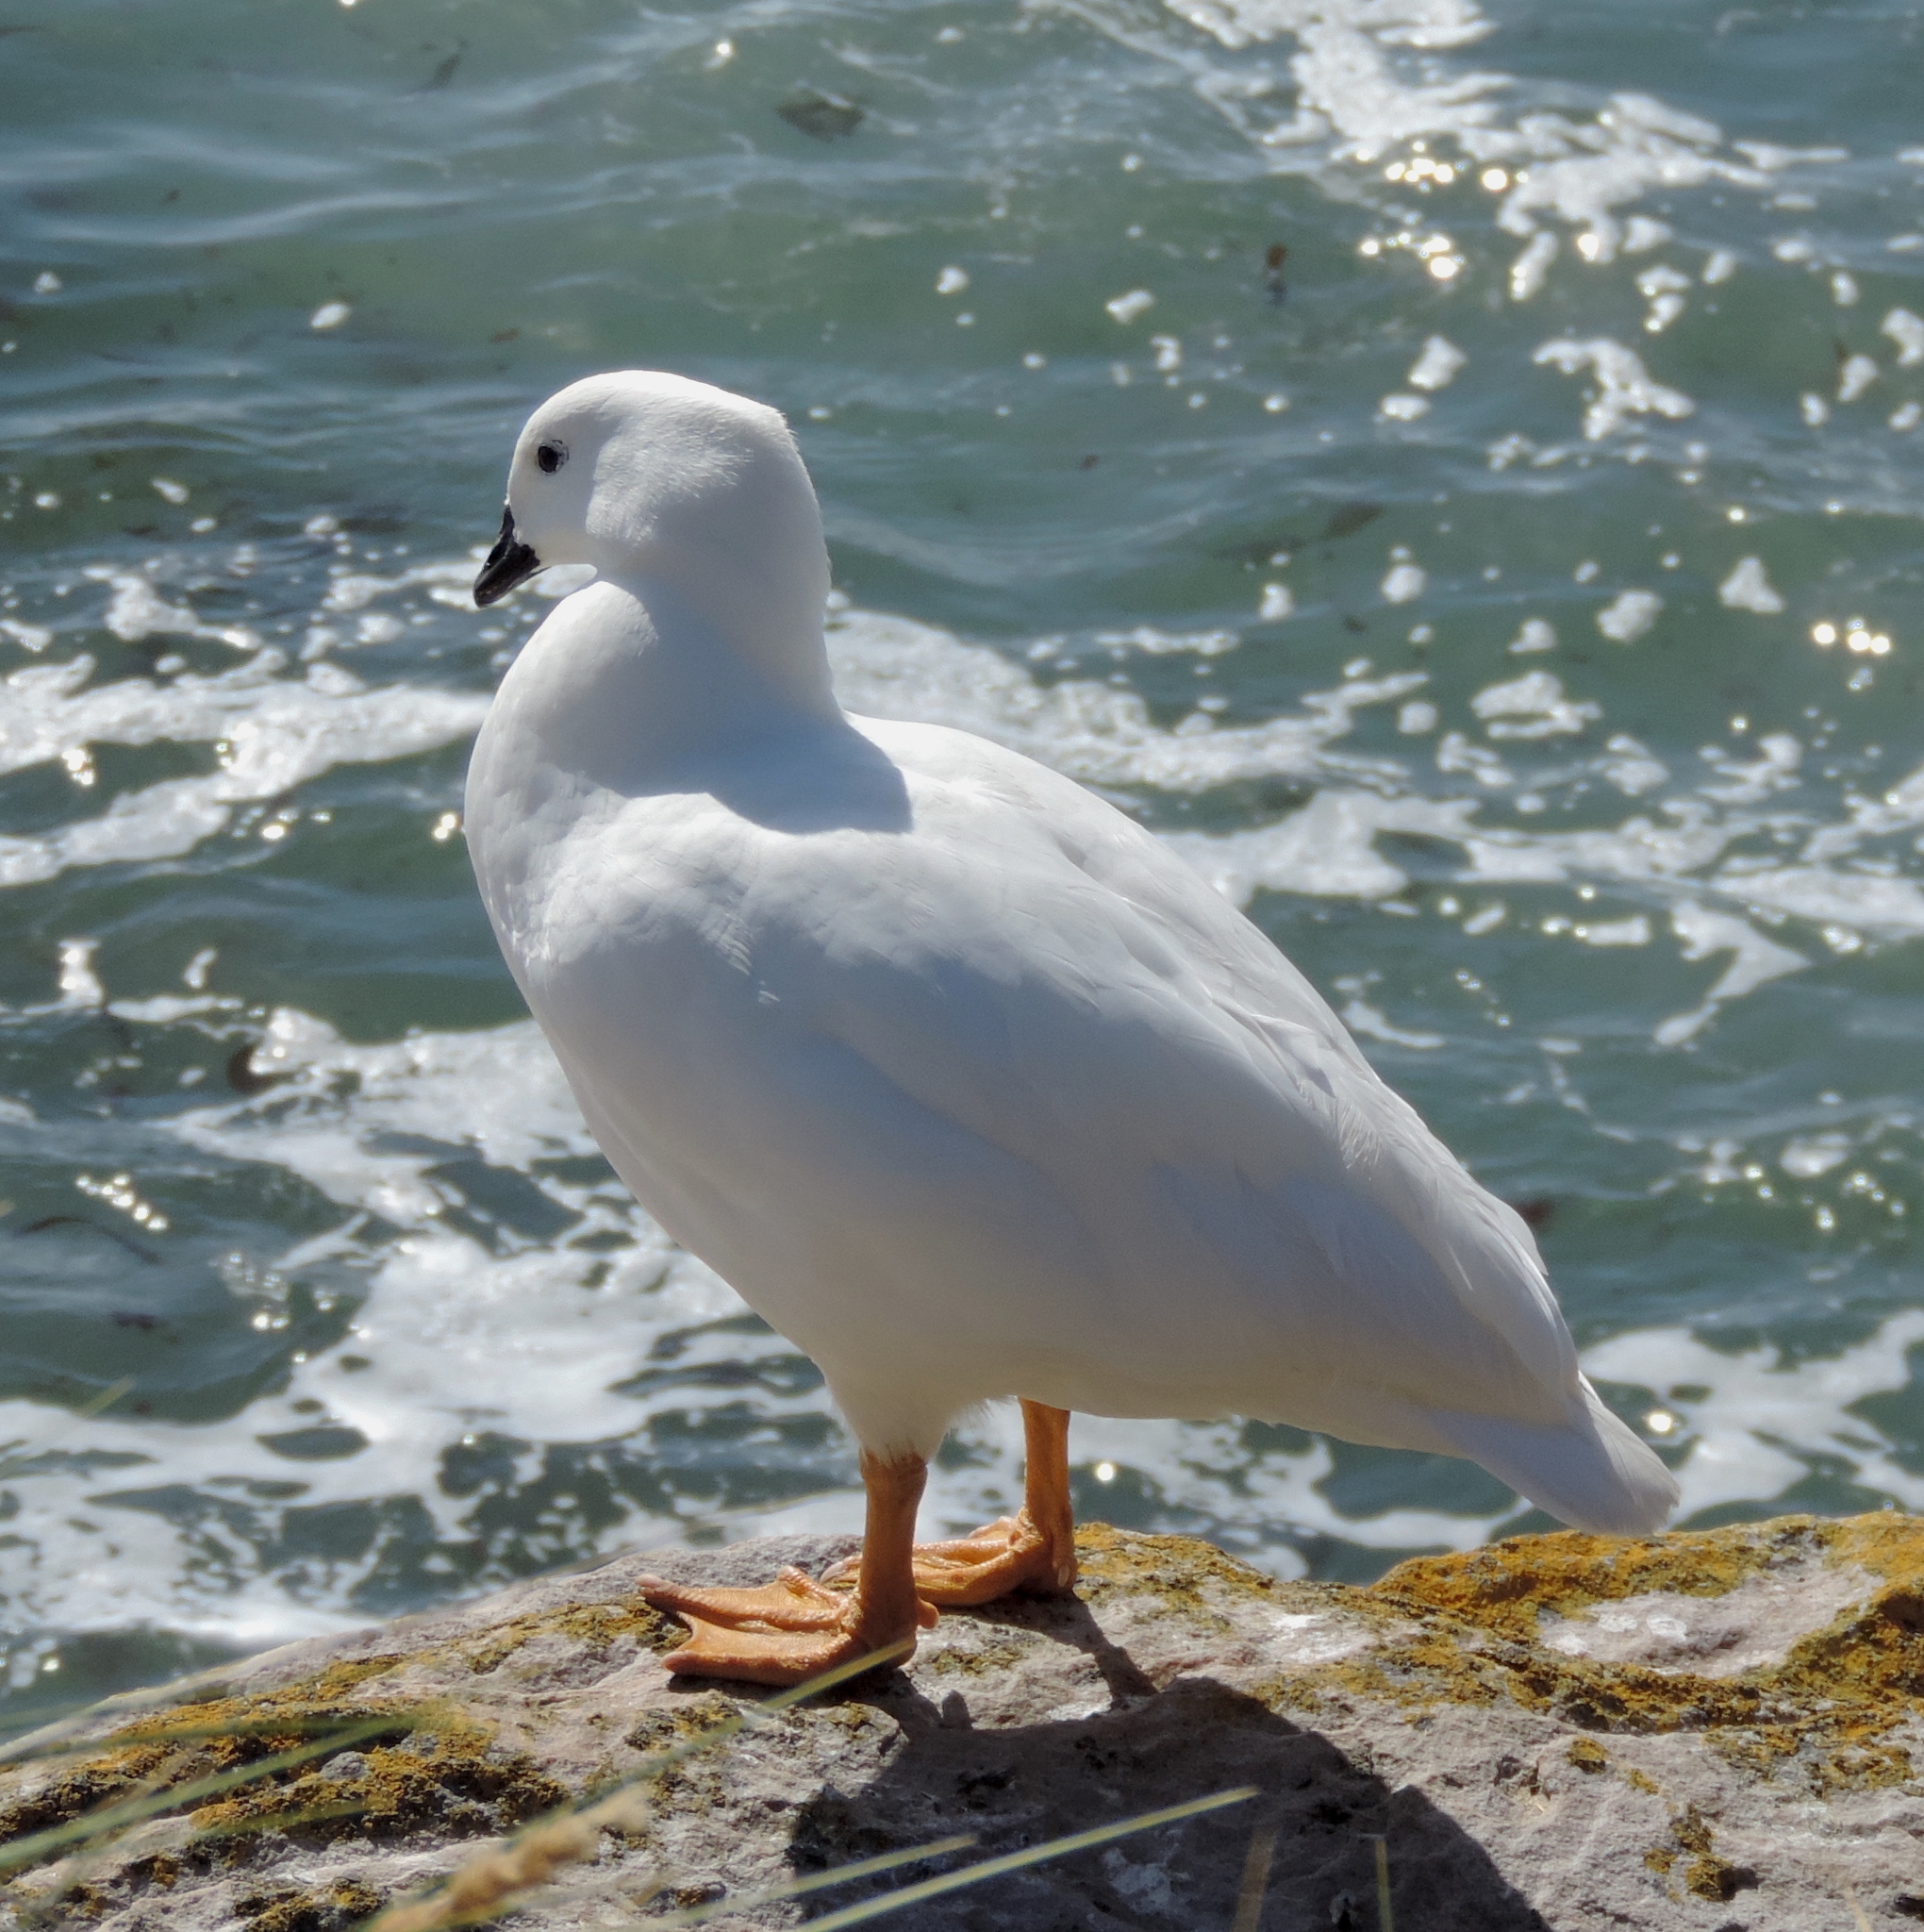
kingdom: Animalia
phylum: Chordata
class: Aves
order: Anseriformes
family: Anatidae
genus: Chloephaga
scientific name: Chloephaga hybrida
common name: Kelp goose
